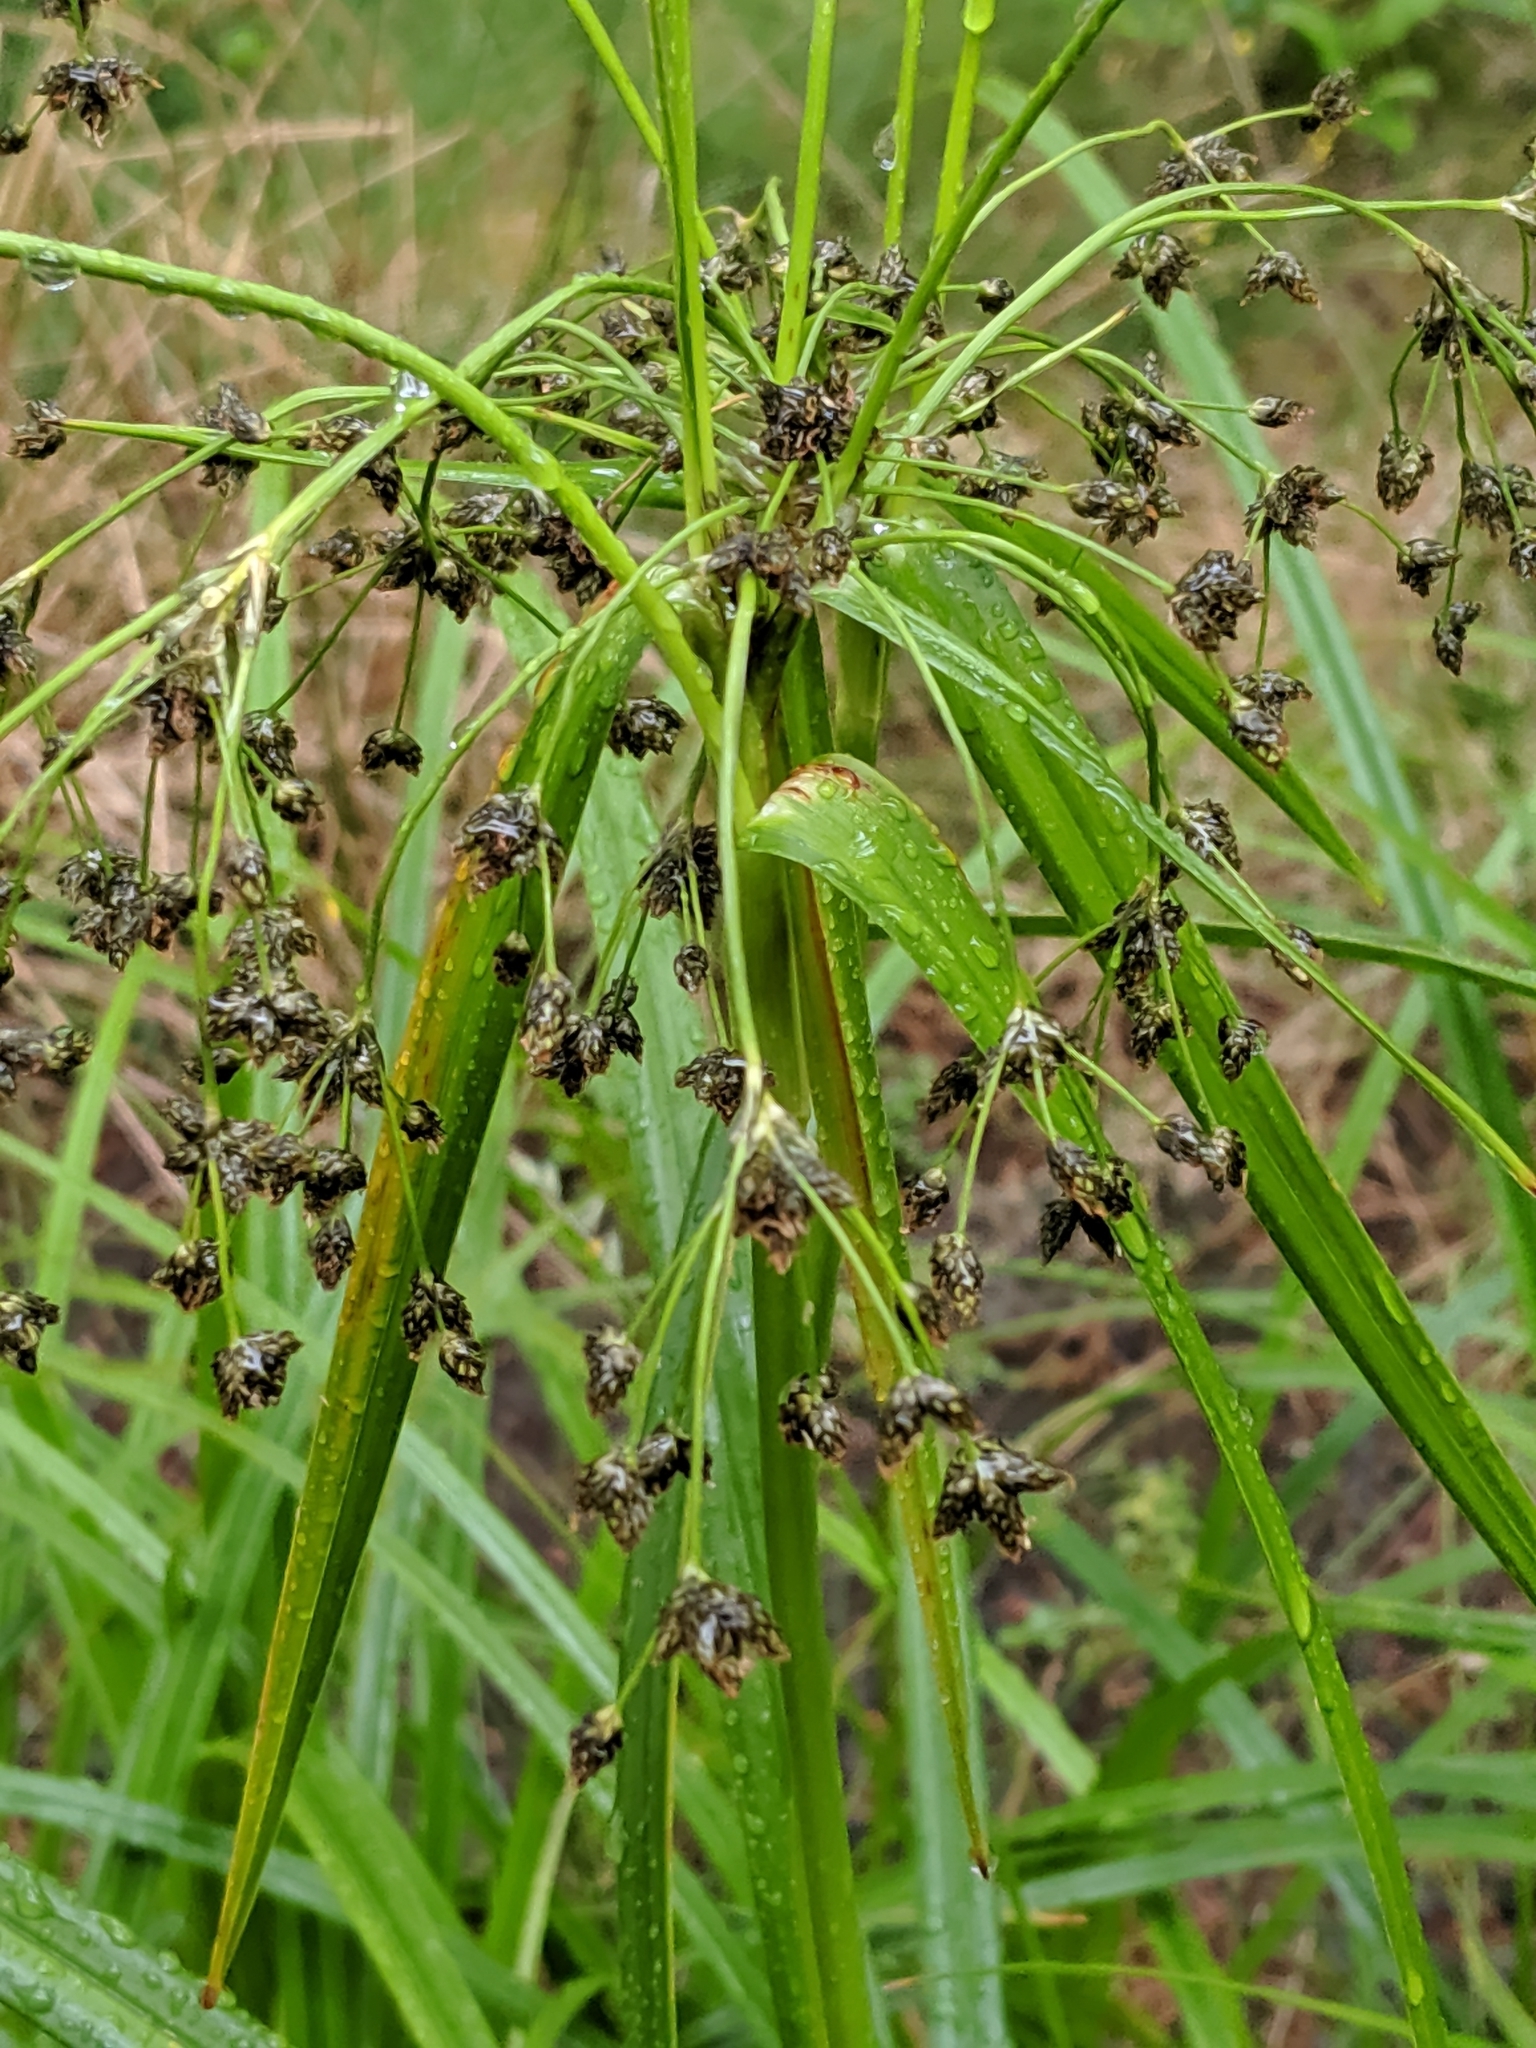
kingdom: Plantae
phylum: Tracheophyta
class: Liliopsida
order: Poales
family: Cyperaceae
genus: Scirpus
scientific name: Scirpus microcarpus
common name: Panicled bulrush
